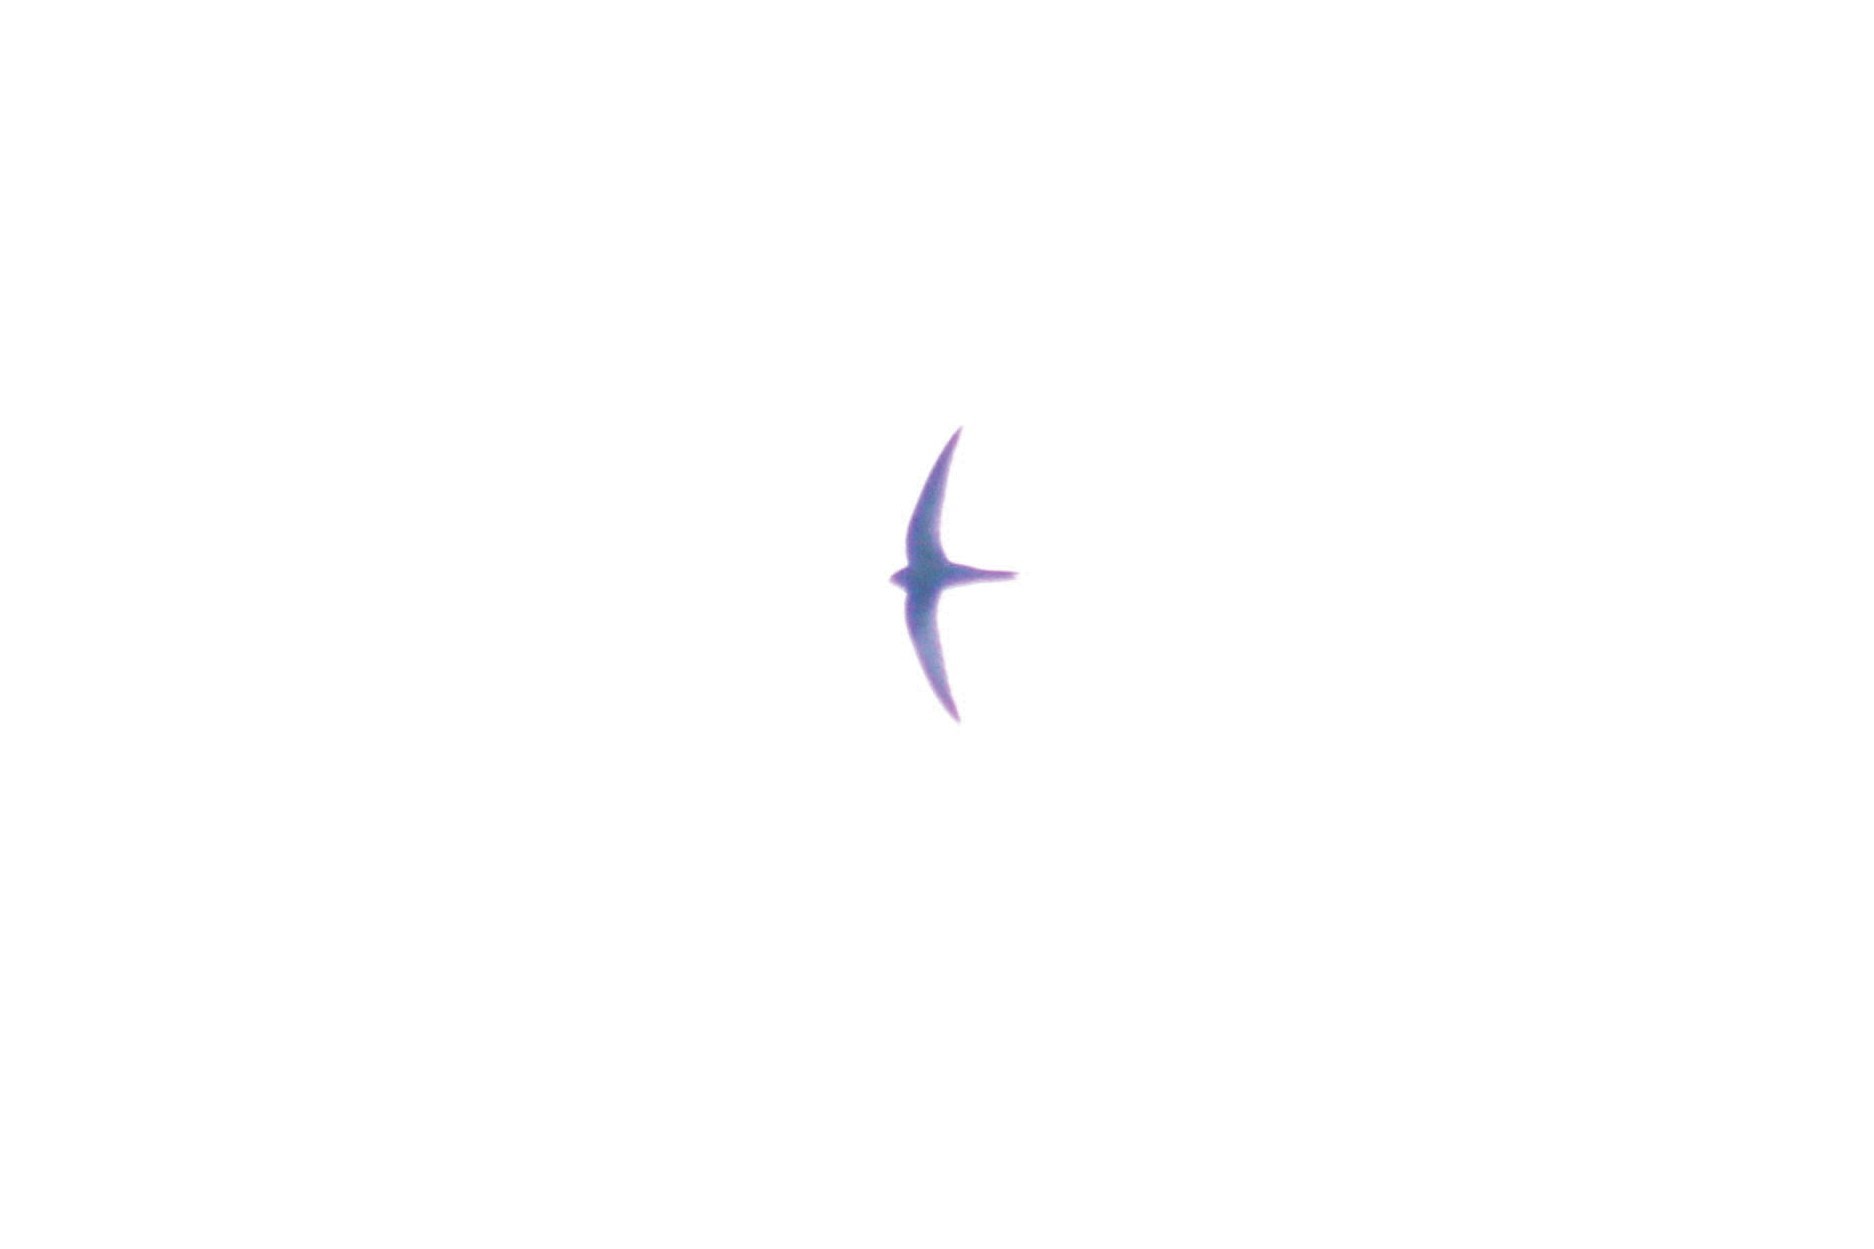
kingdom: Animalia
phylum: Chordata
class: Aves
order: Apodiformes
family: Apodidae
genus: Apus
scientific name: Apus apus
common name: Common swift
